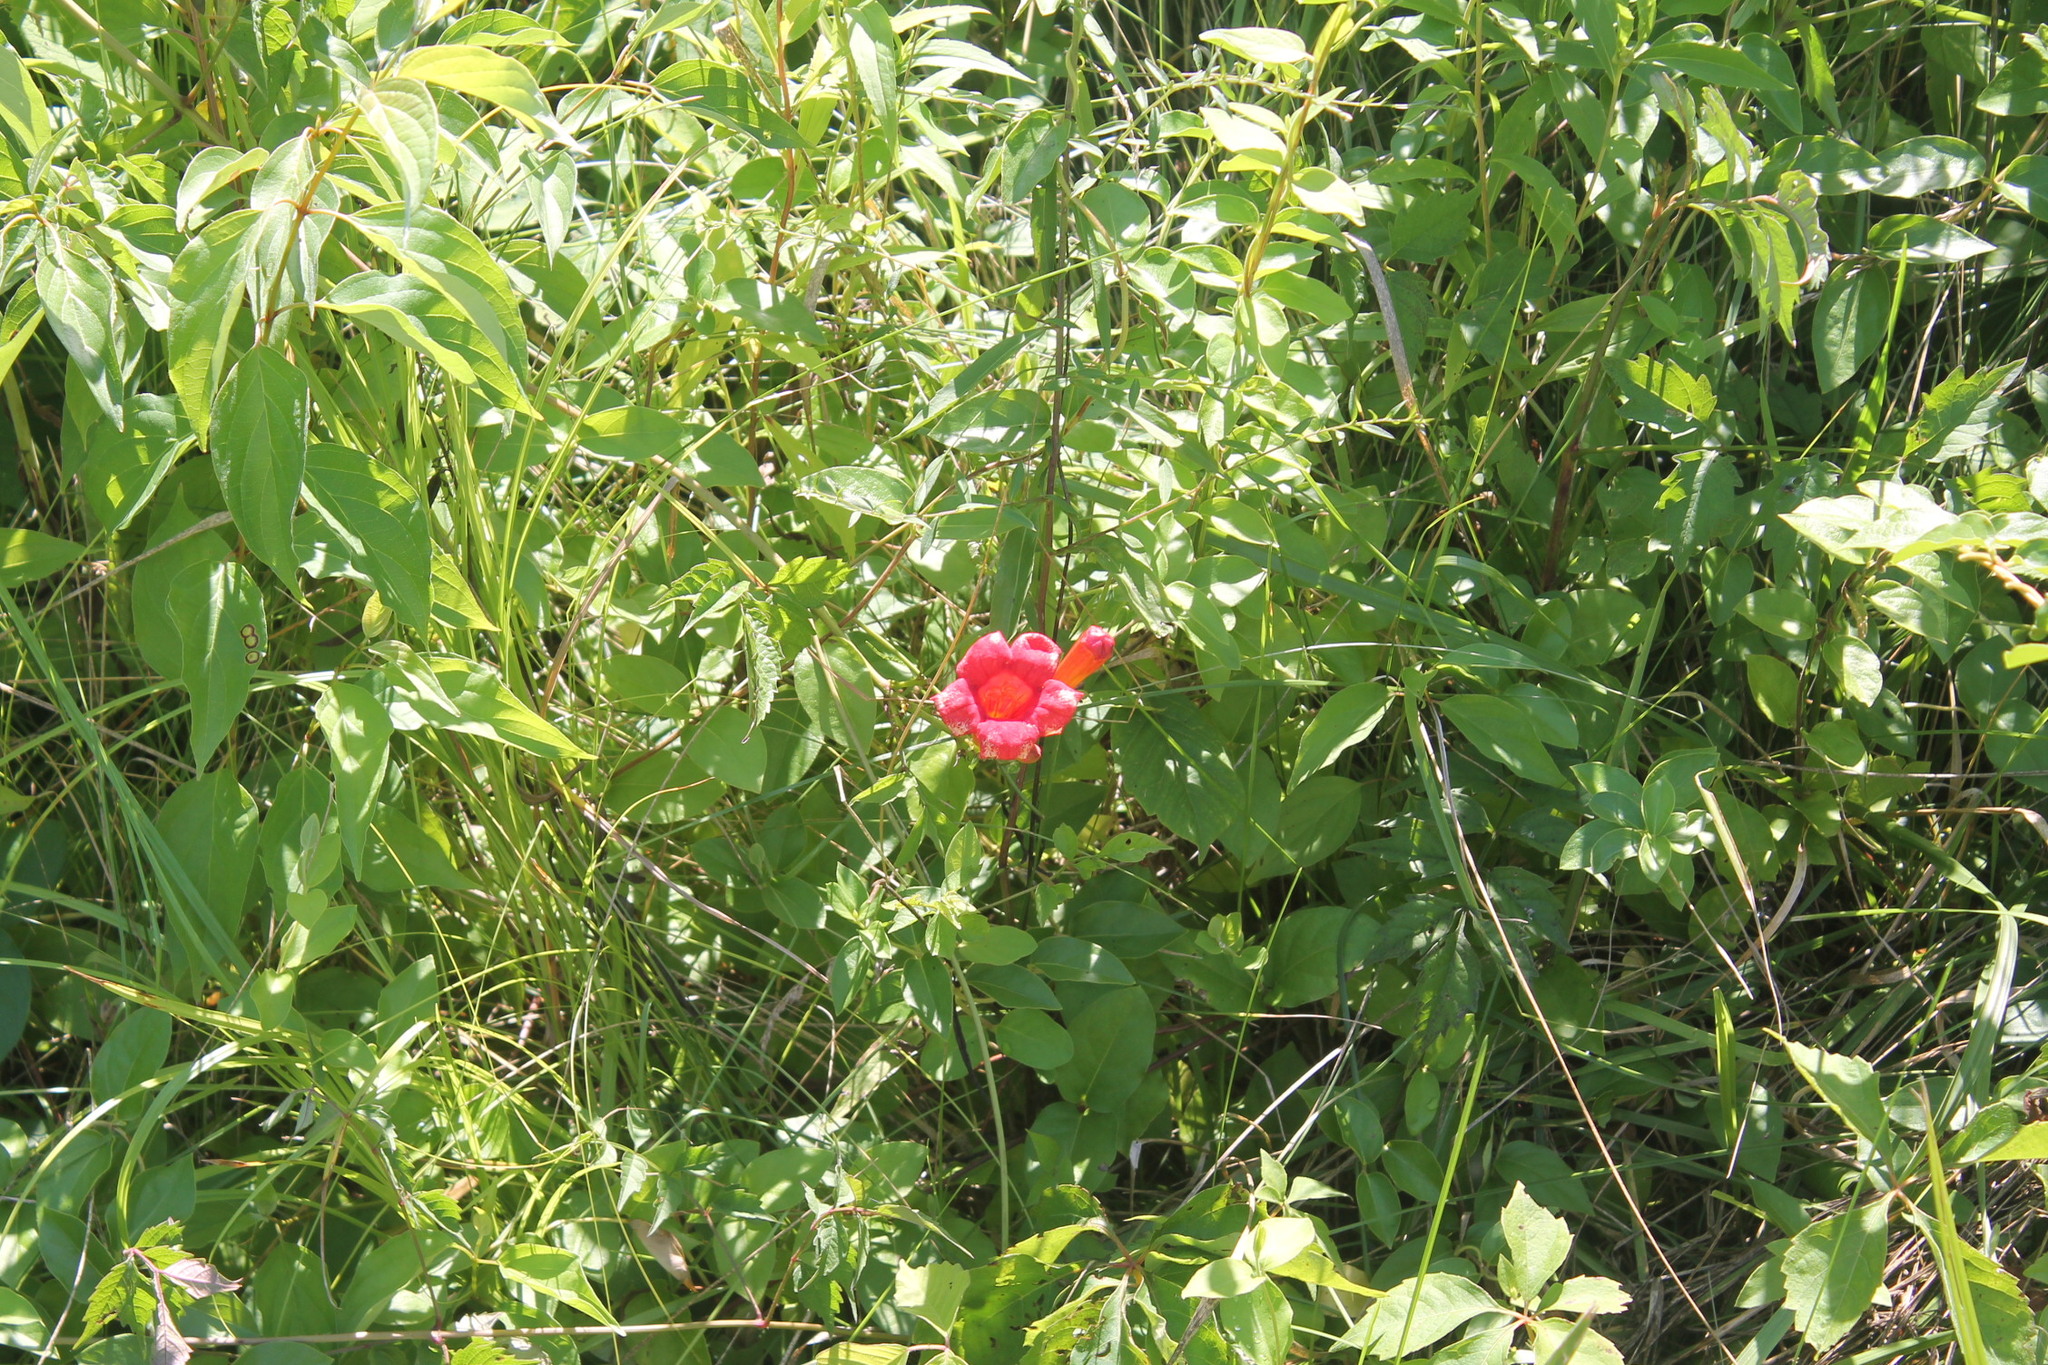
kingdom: Plantae
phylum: Tracheophyta
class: Magnoliopsida
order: Lamiales
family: Bignoniaceae
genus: Campsis
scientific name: Campsis radicans
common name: Trumpet-creeper
